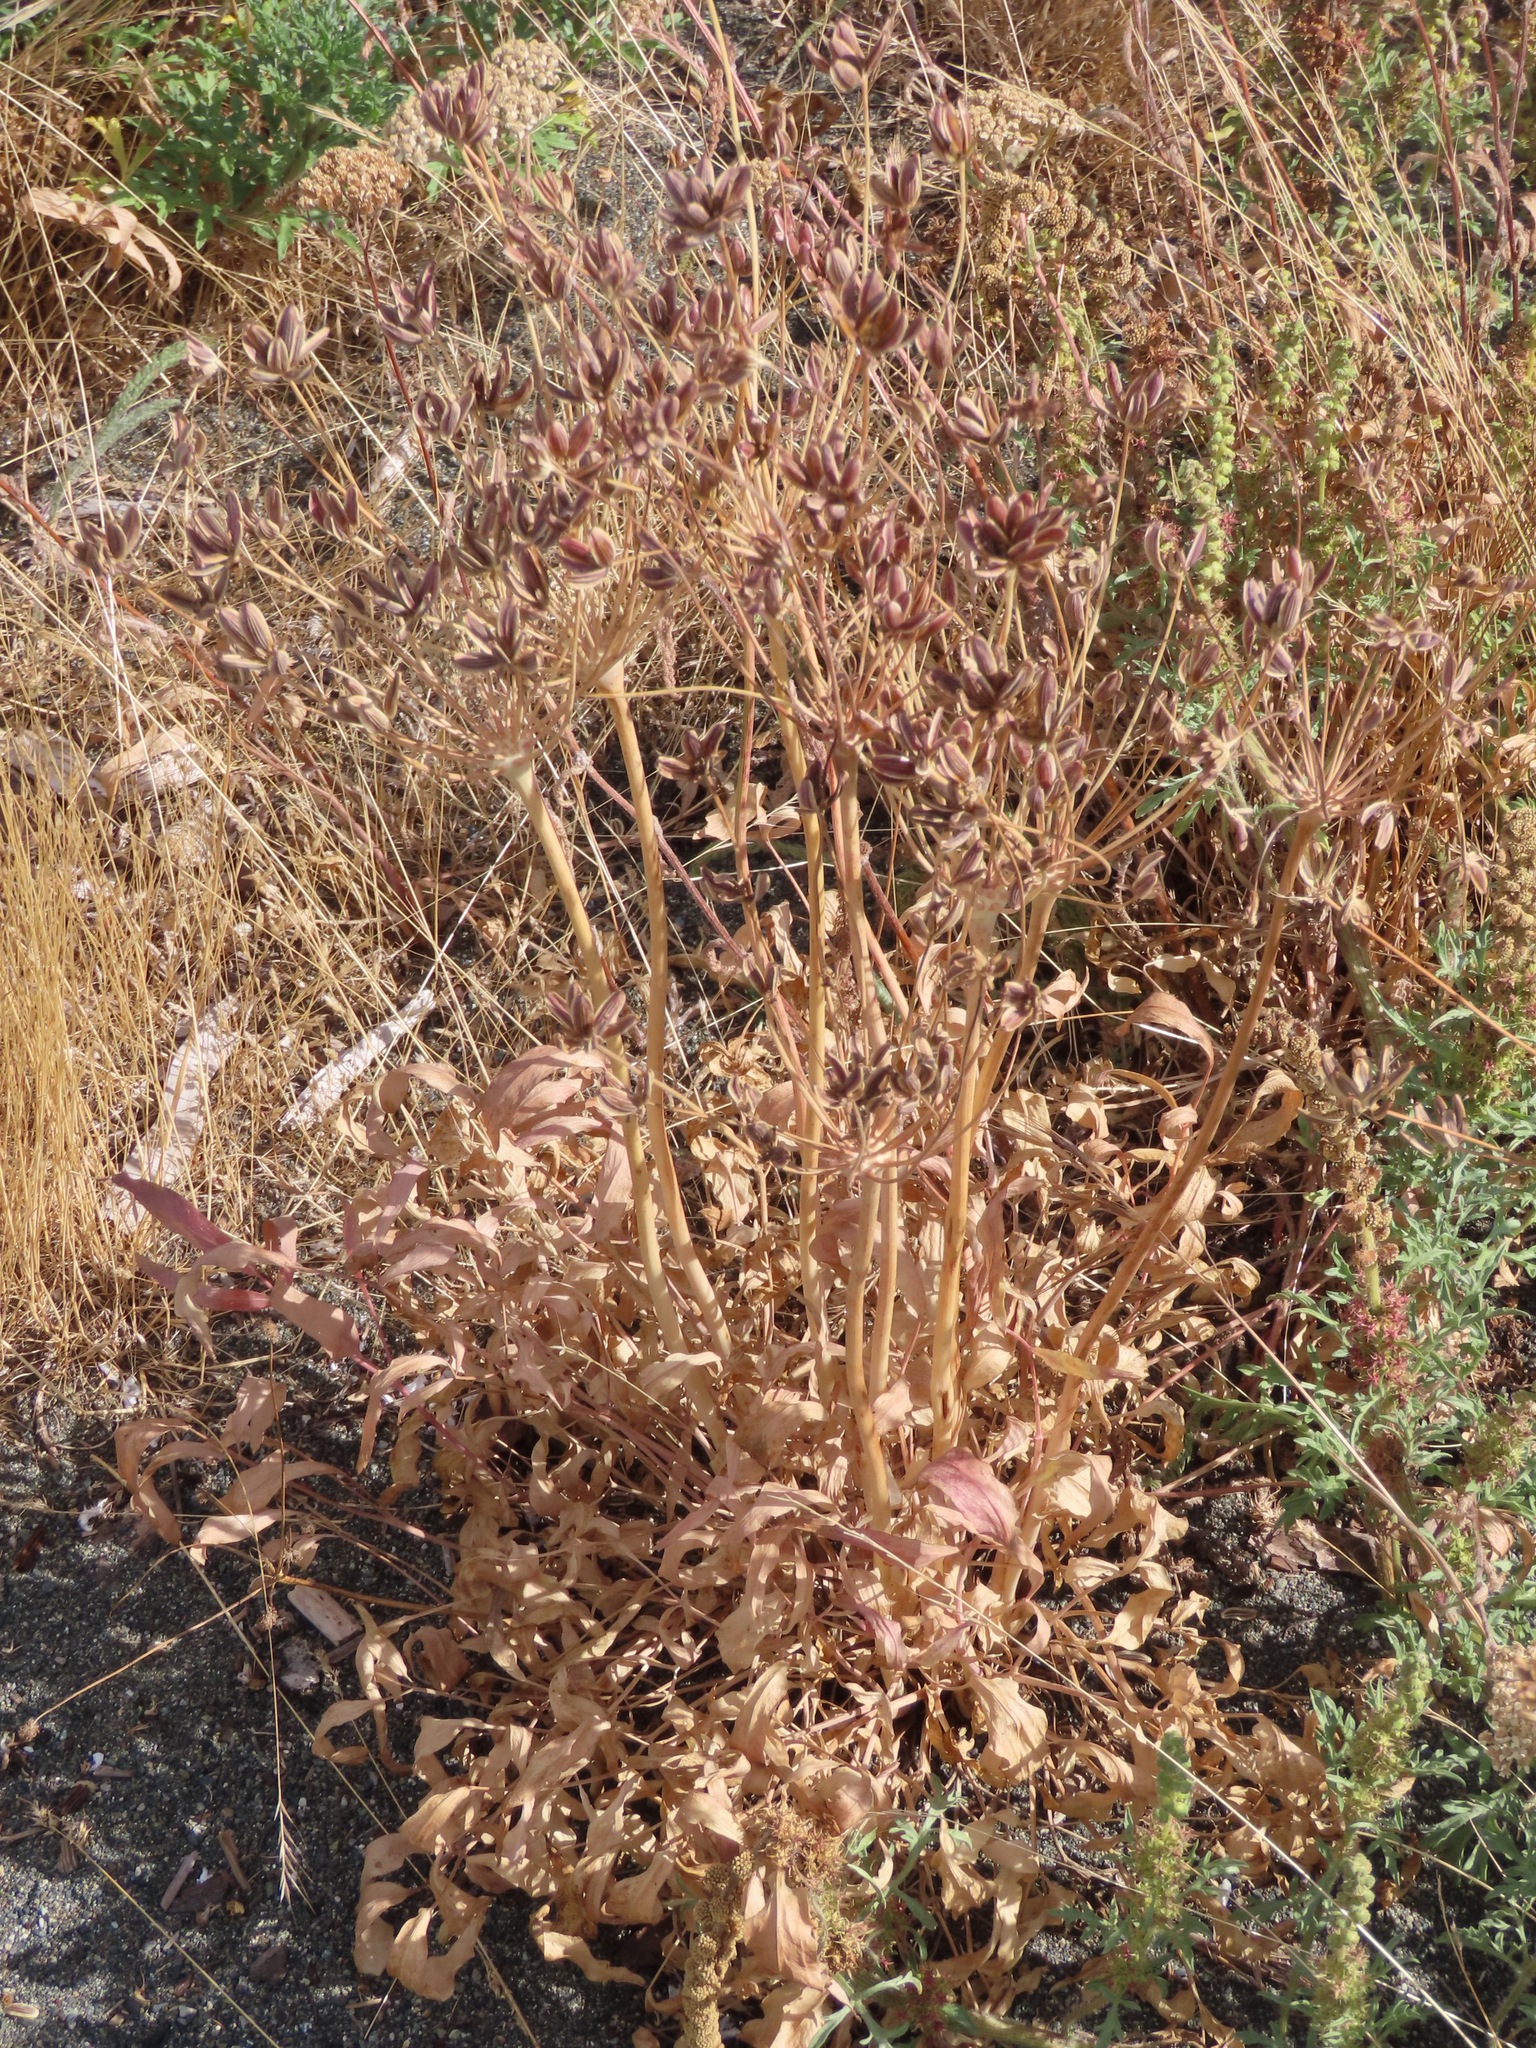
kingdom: Plantae
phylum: Tracheophyta
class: Magnoliopsida
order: Apiales
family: Apiaceae
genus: Lomatium
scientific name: Lomatium nudicaule
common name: Pestle lomatium
